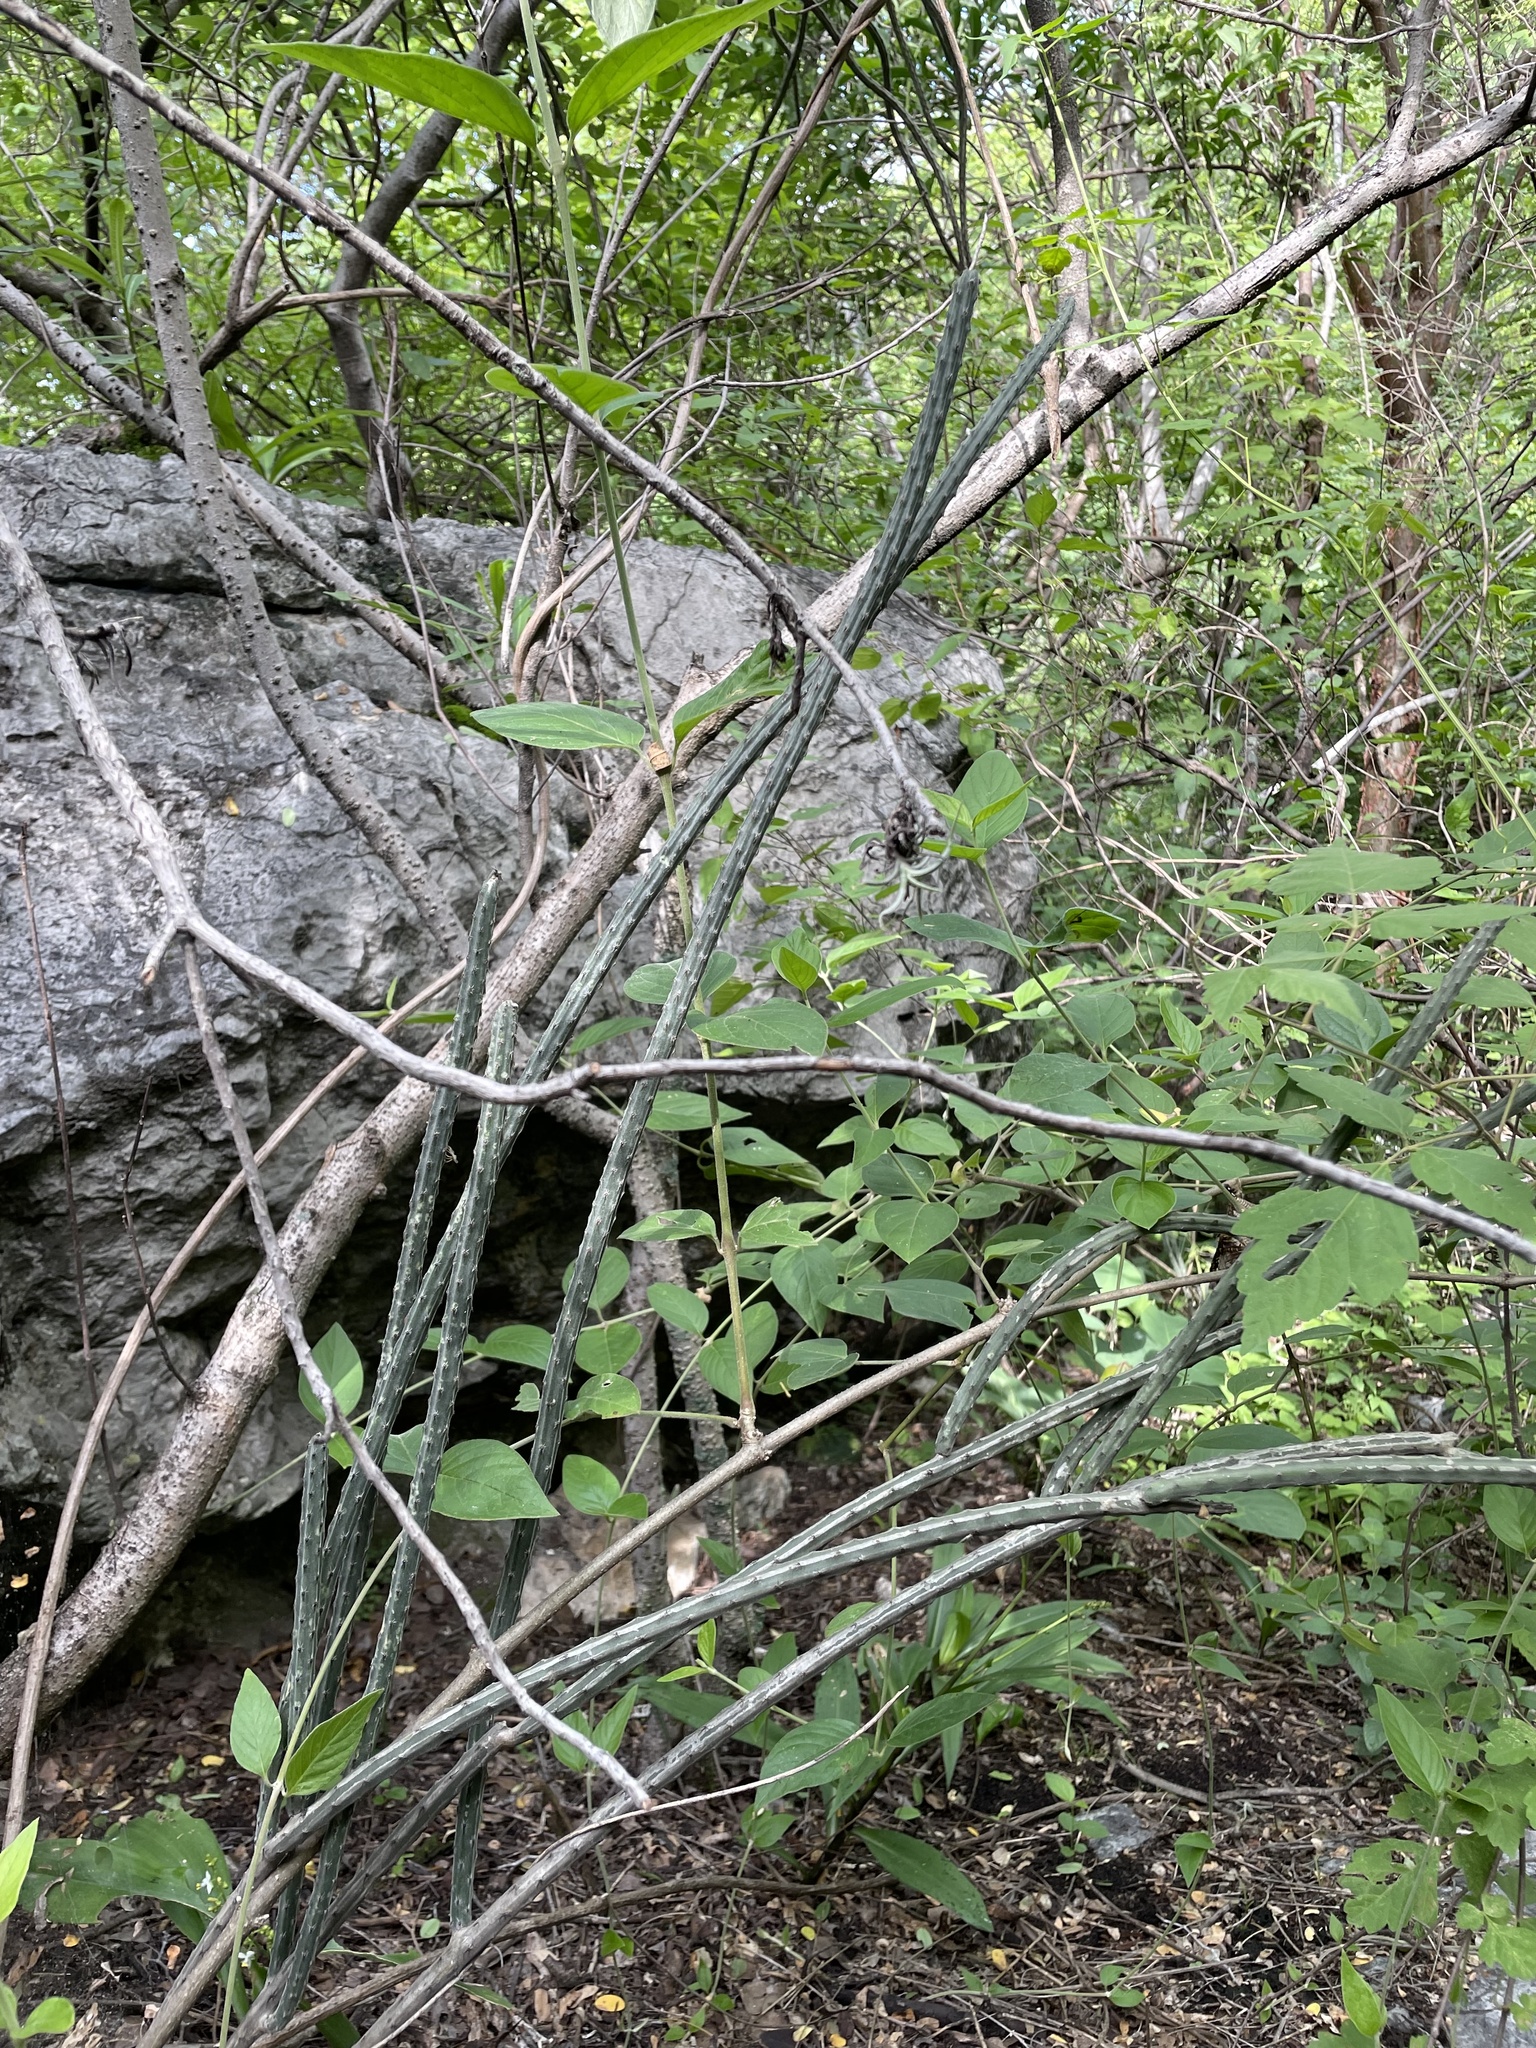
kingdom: Plantae
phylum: Tracheophyta
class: Magnoliopsida
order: Caryophyllales
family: Cactaceae
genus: Peniocereus
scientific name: Peniocereus viperinus
